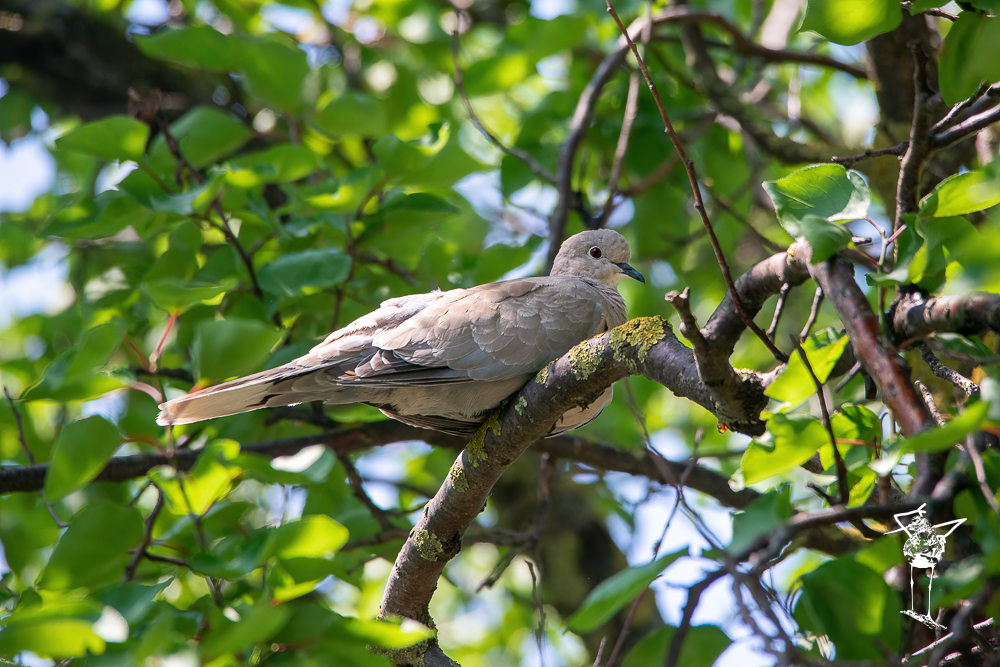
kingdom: Animalia
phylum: Chordata
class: Aves
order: Columbiformes
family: Columbidae
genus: Streptopelia
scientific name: Streptopelia decaocto
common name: Eurasian collared dove
